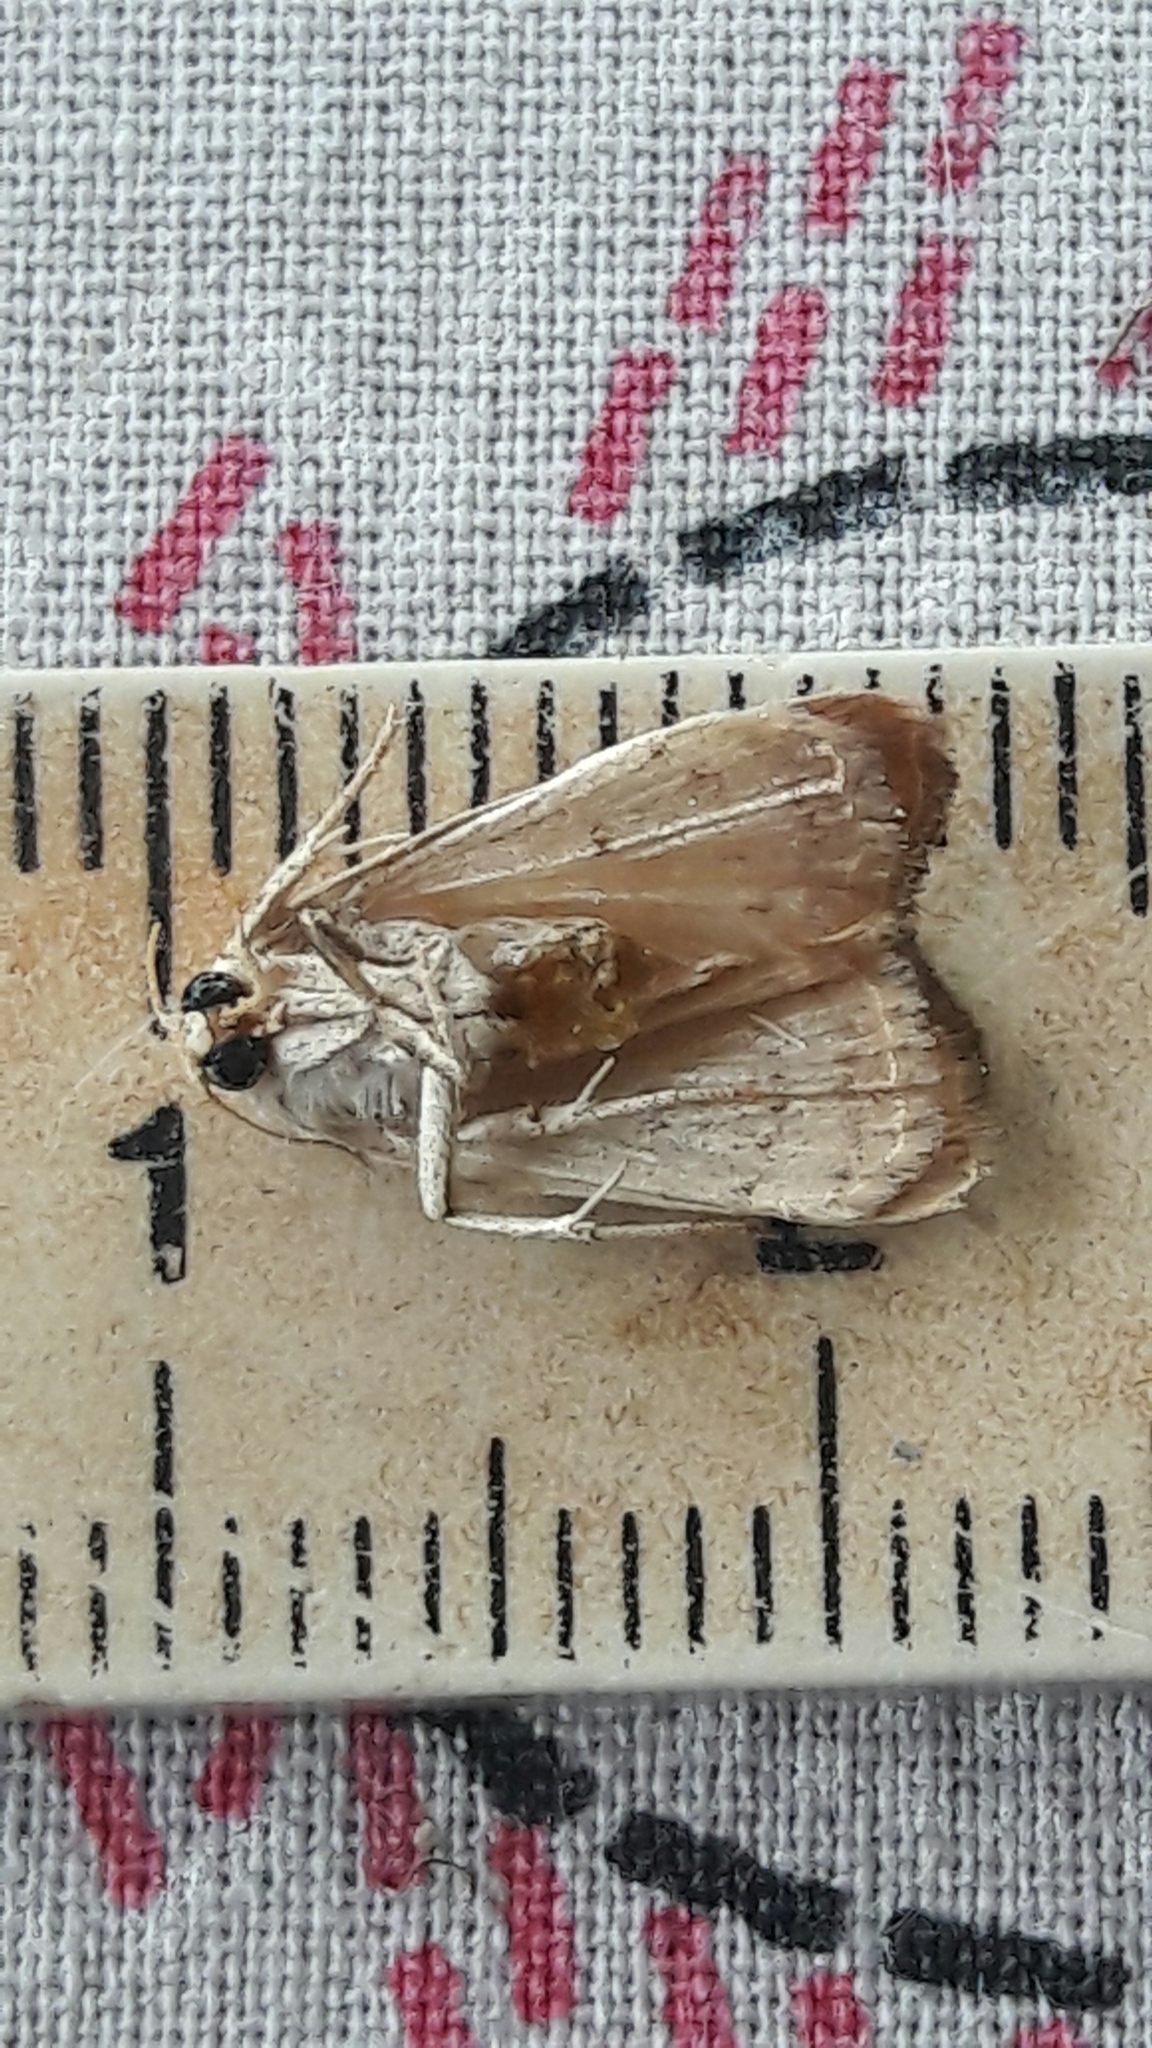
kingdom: Animalia
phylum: Arthropoda
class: Insecta
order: Lepidoptera
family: Noctuidae
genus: Bagisara
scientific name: Bagisara repanda
